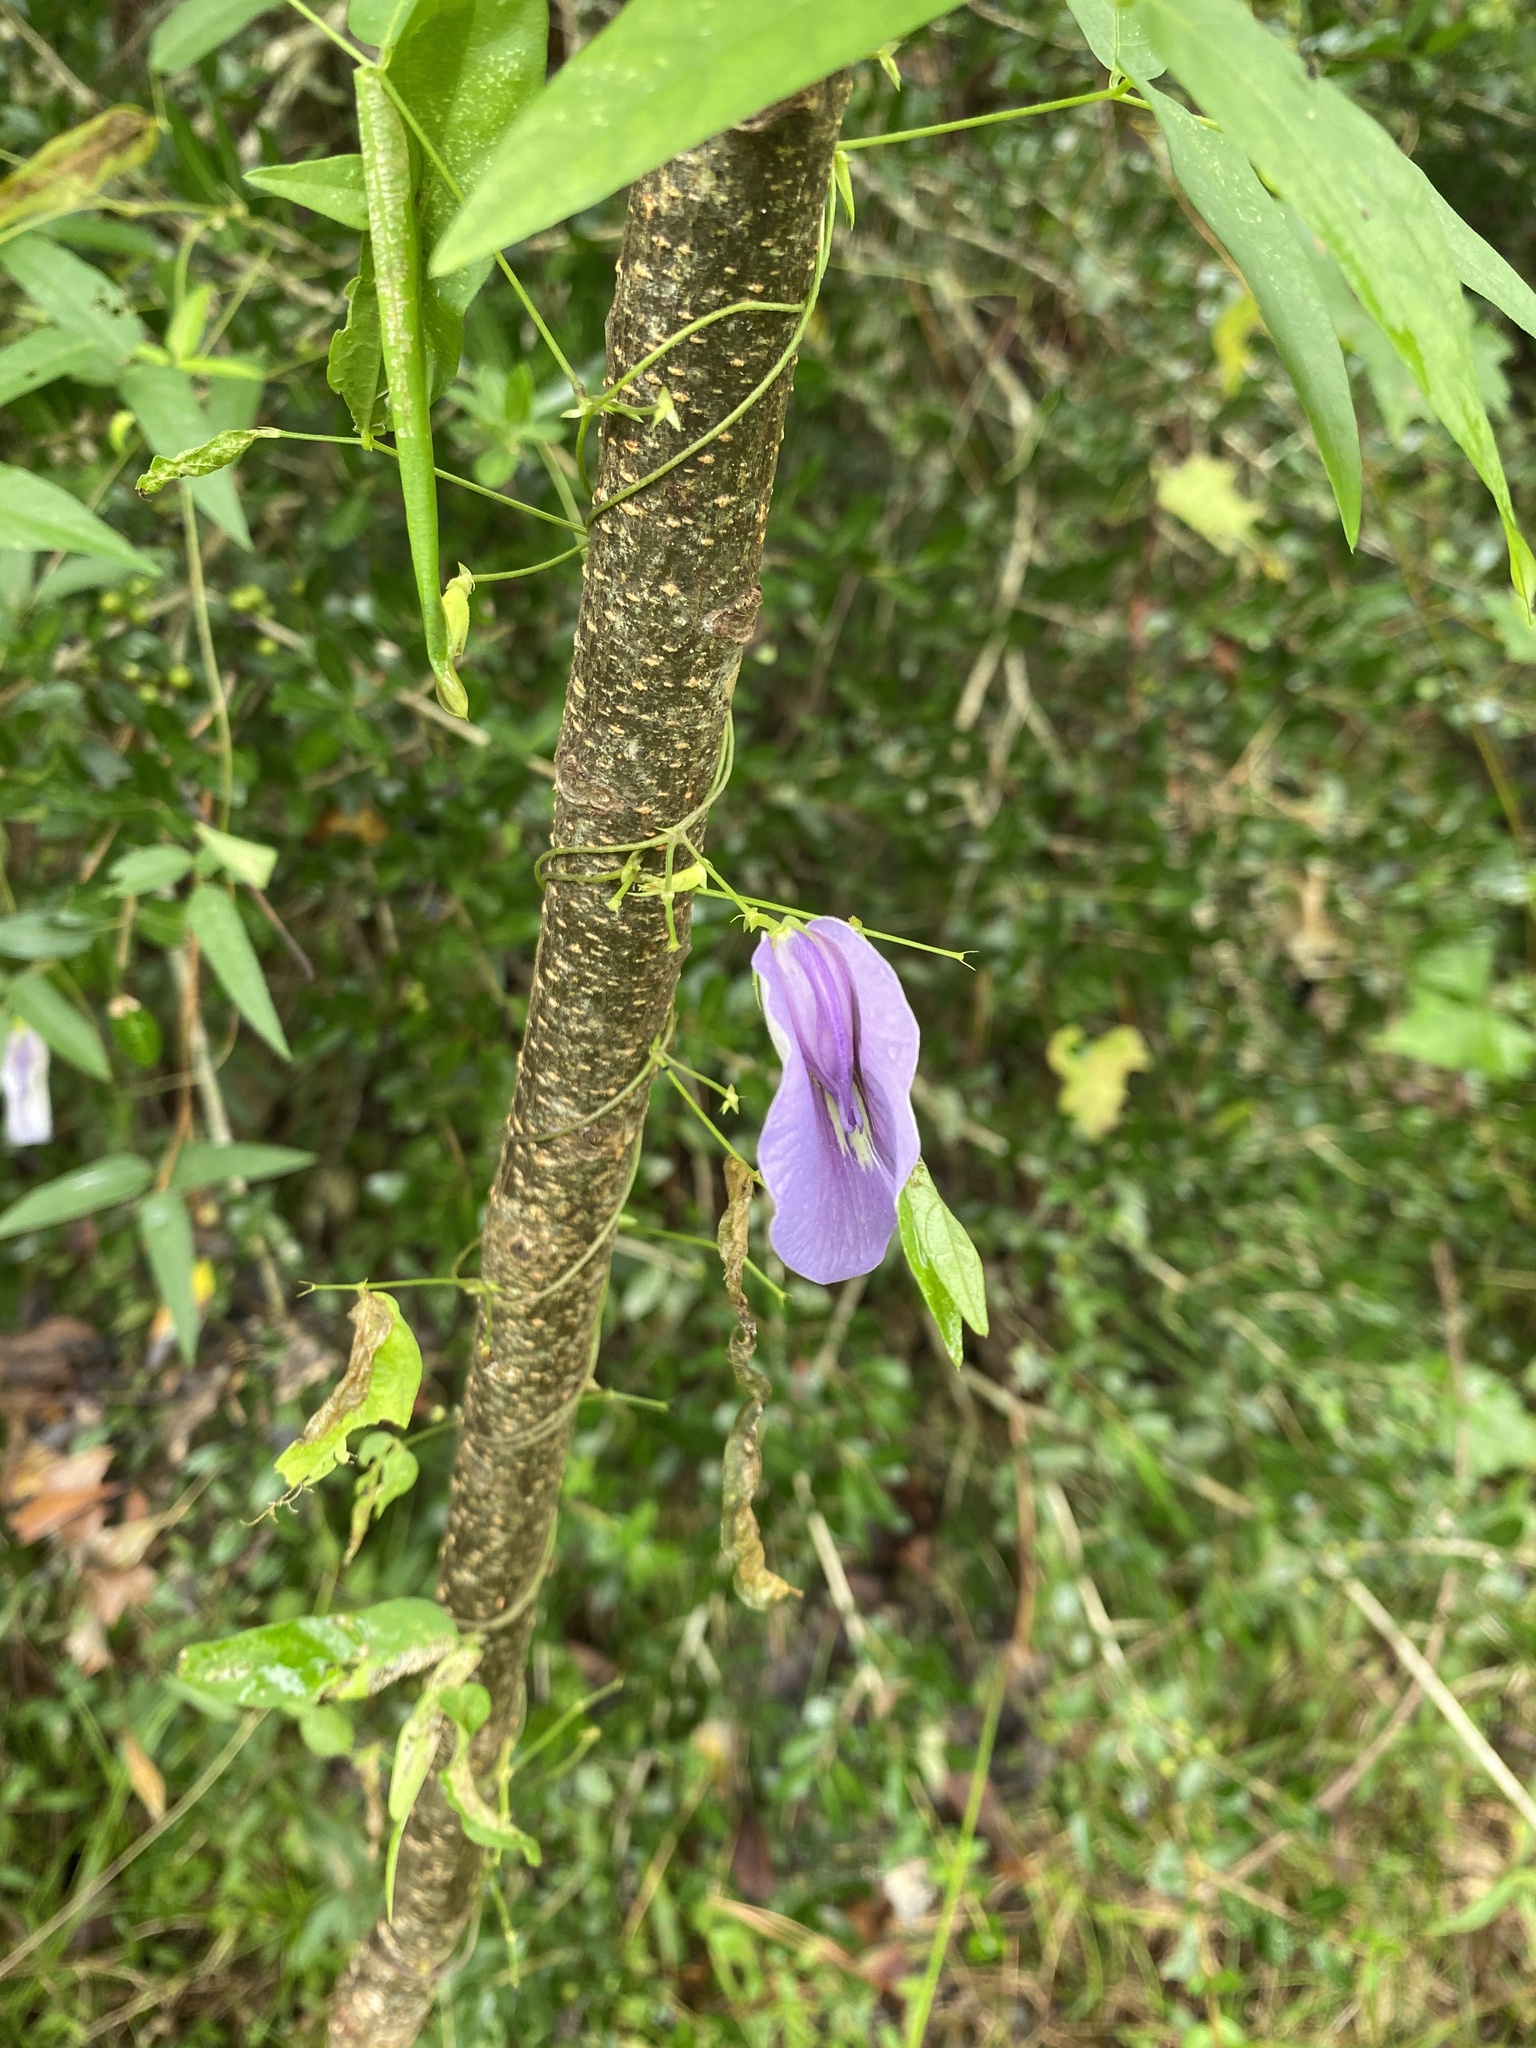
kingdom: Plantae
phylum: Tracheophyta
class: Magnoliopsida
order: Fabales
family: Fabaceae
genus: Centrosema
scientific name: Centrosema virginianum
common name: Butterfly-pea
